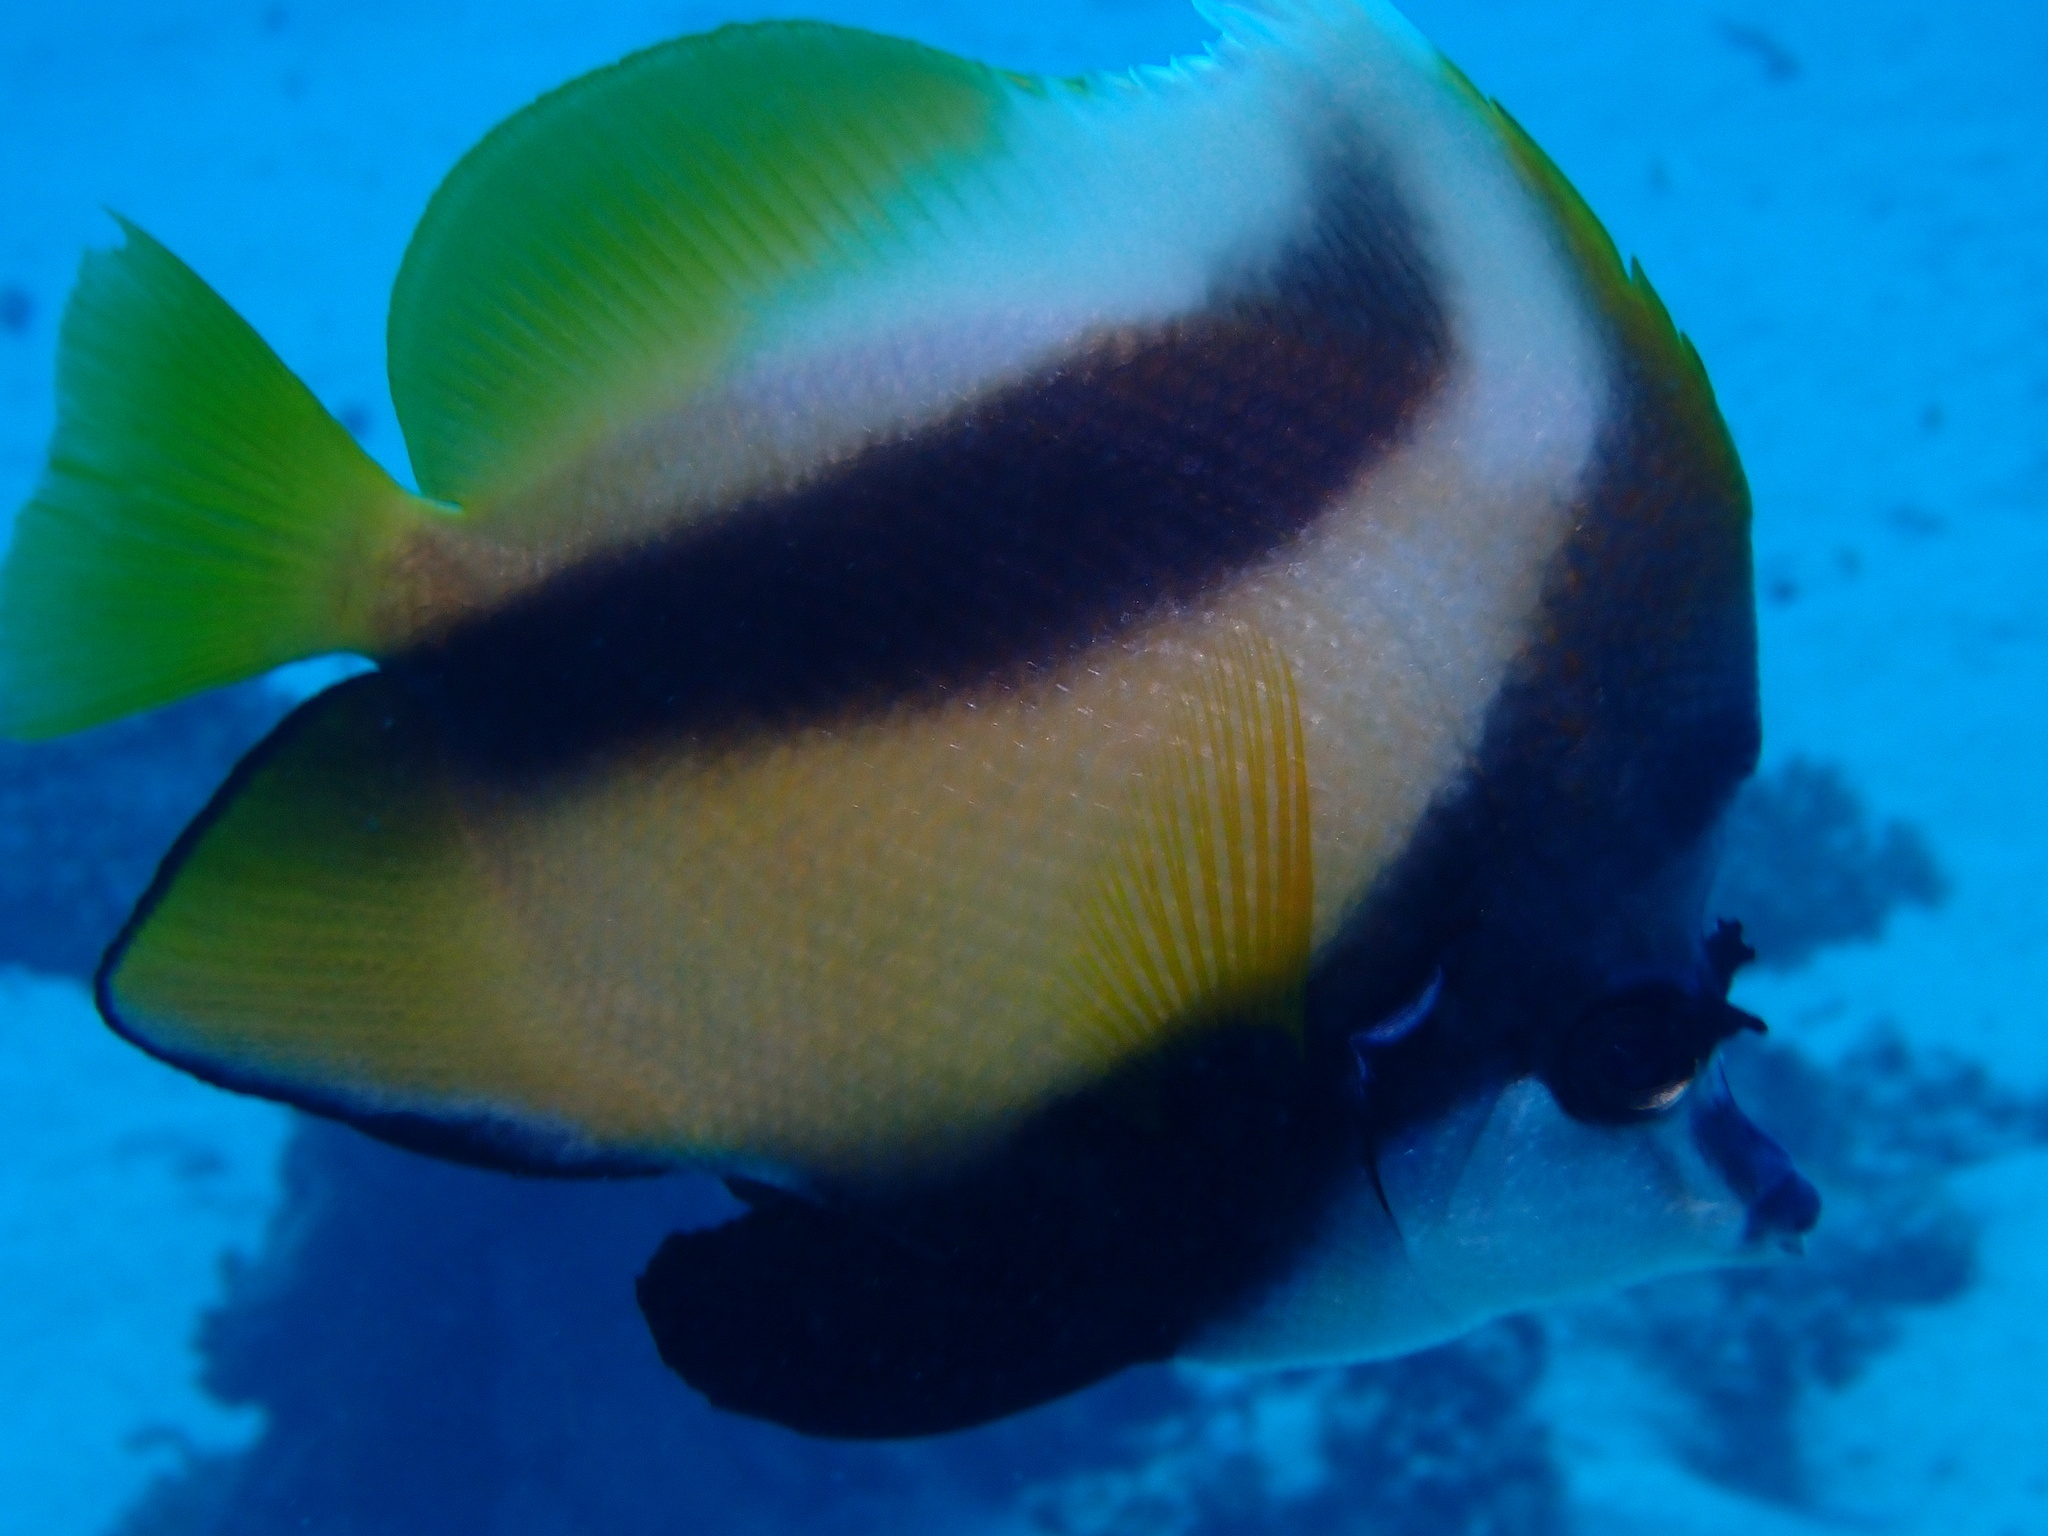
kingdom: Animalia
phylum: Chordata
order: Perciformes
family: Chaetodontidae
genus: Heniochus
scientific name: Heniochus intermedius
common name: Red sea bannerfish
